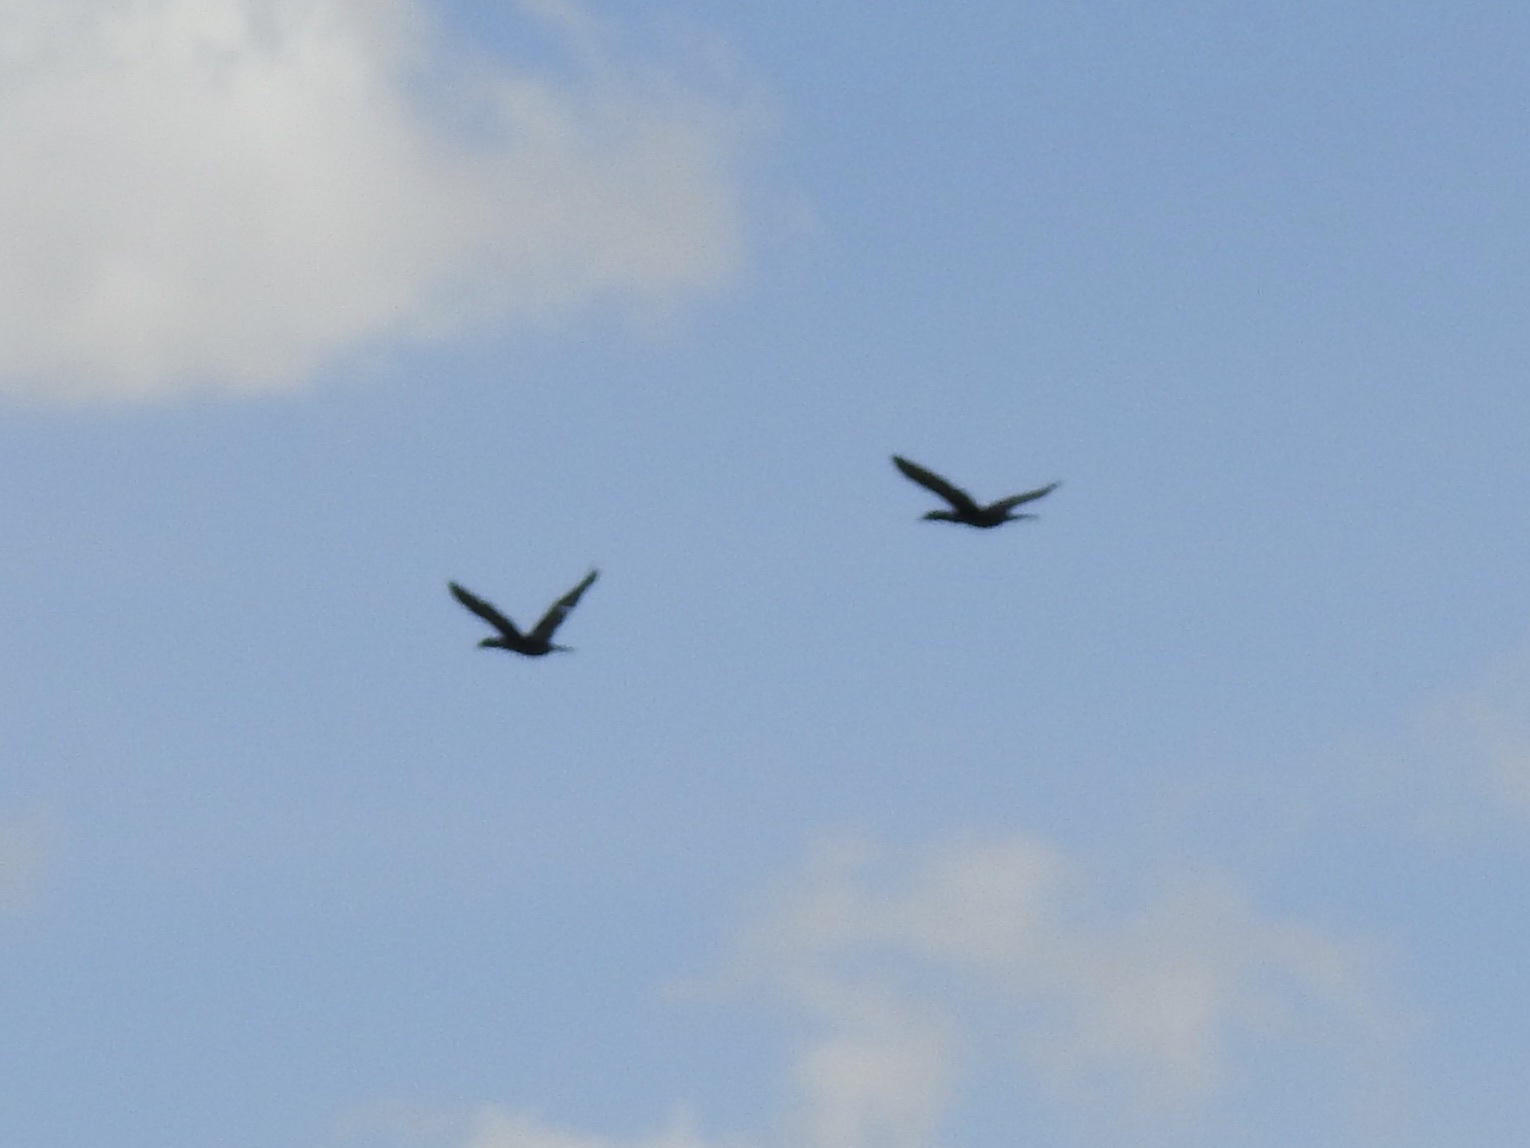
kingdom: Animalia
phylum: Chordata
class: Aves
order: Suliformes
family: Phalacrocoracidae
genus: Phalacrocorax
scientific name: Phalacrocorax brasilianus
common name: Neotropic cormorant
